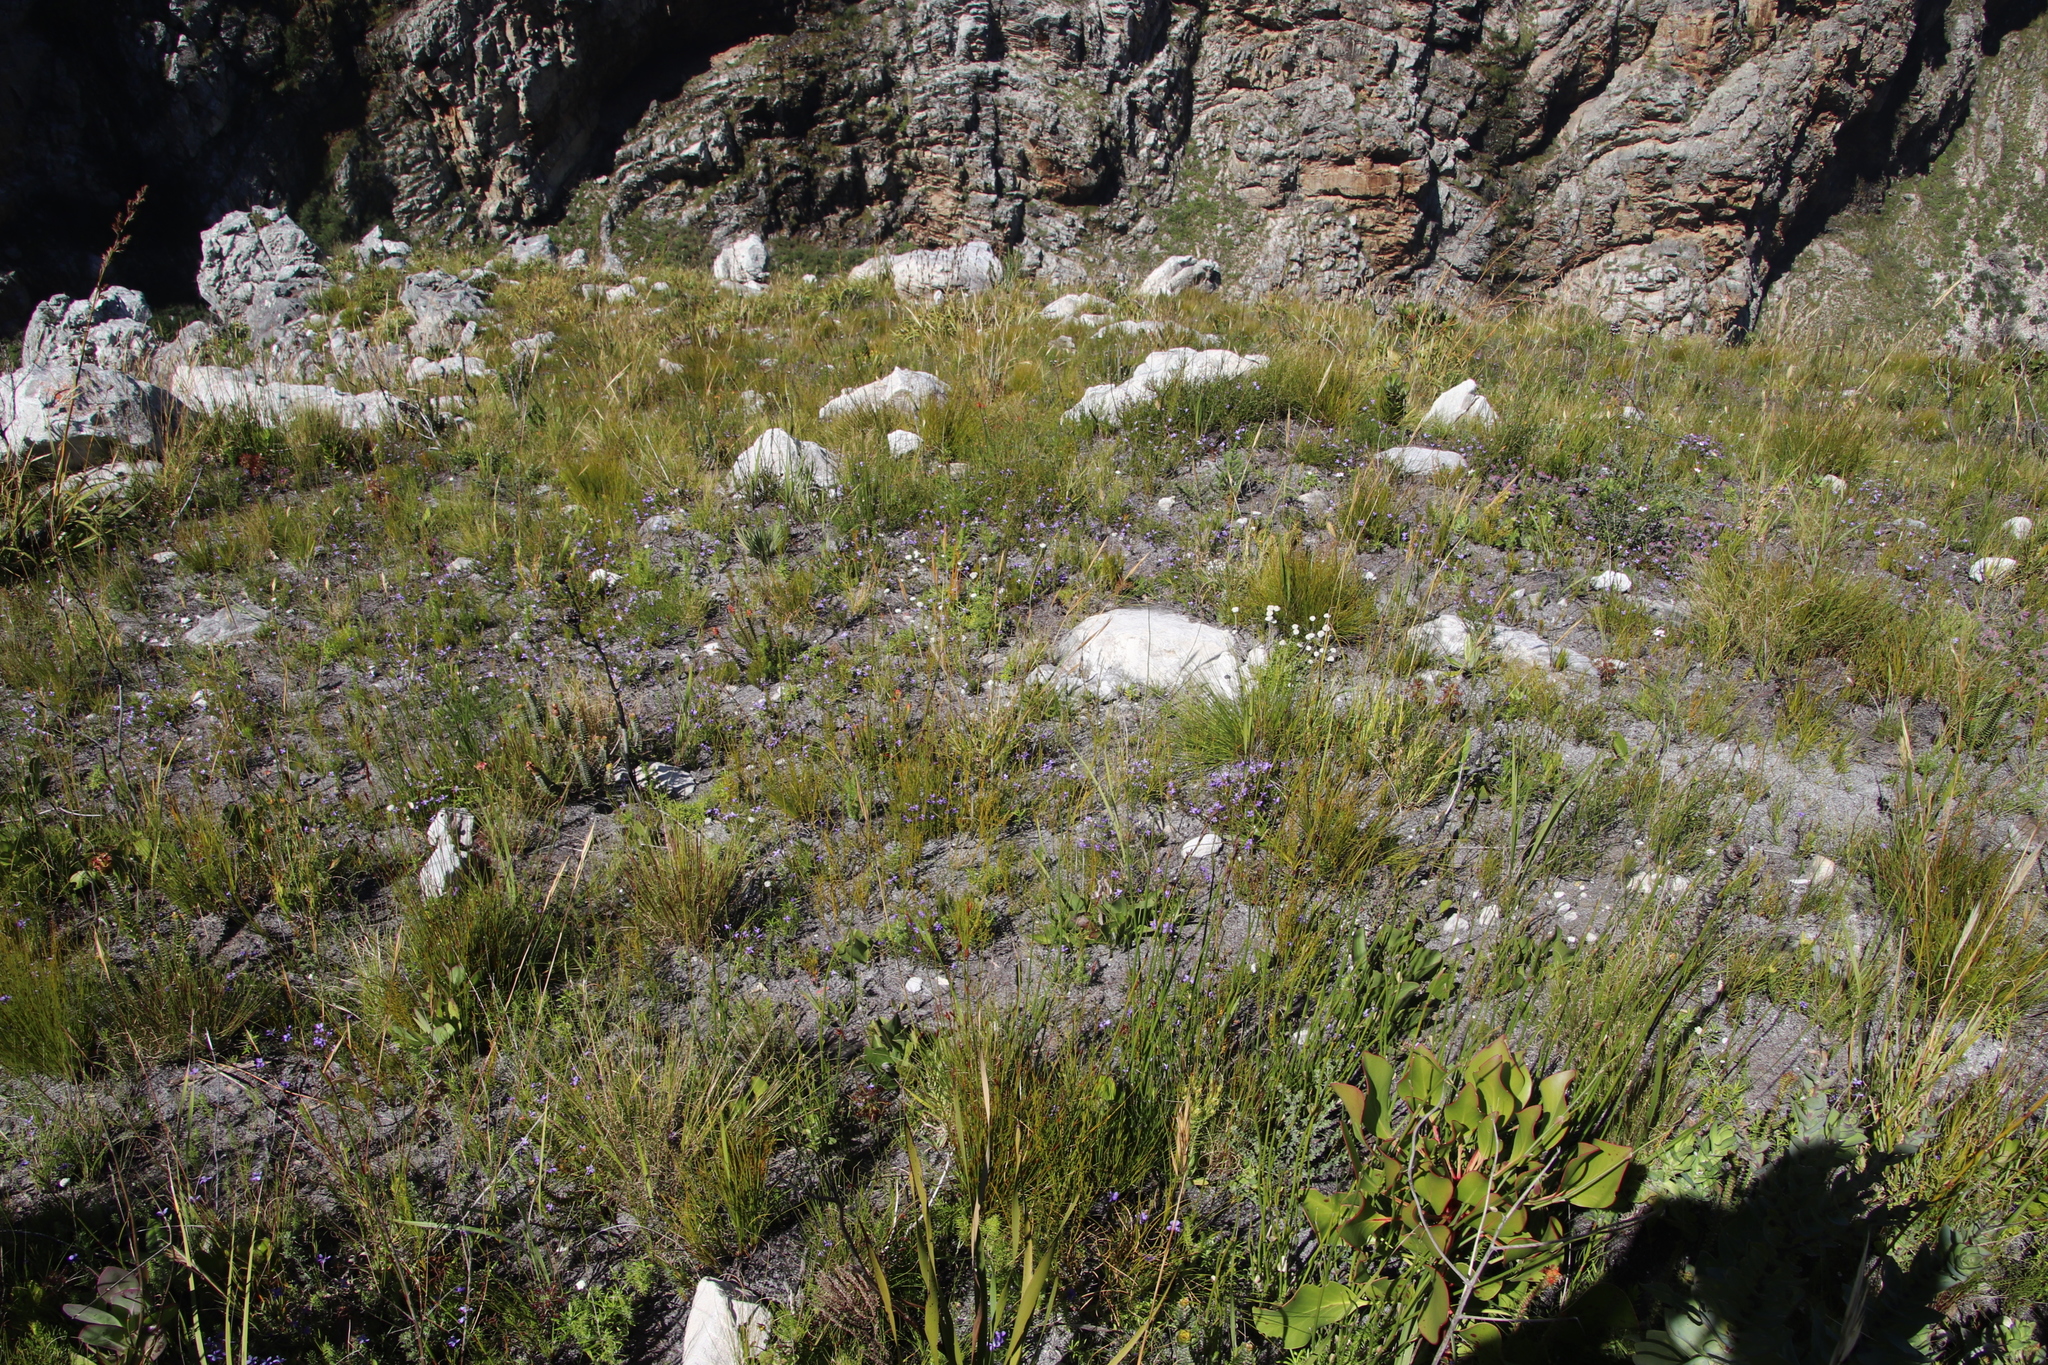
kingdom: Plantae
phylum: Tracheophyta
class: Magnoliopsida
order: Malpighiales
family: Violaceae
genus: Viola
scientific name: Viola decumbens
